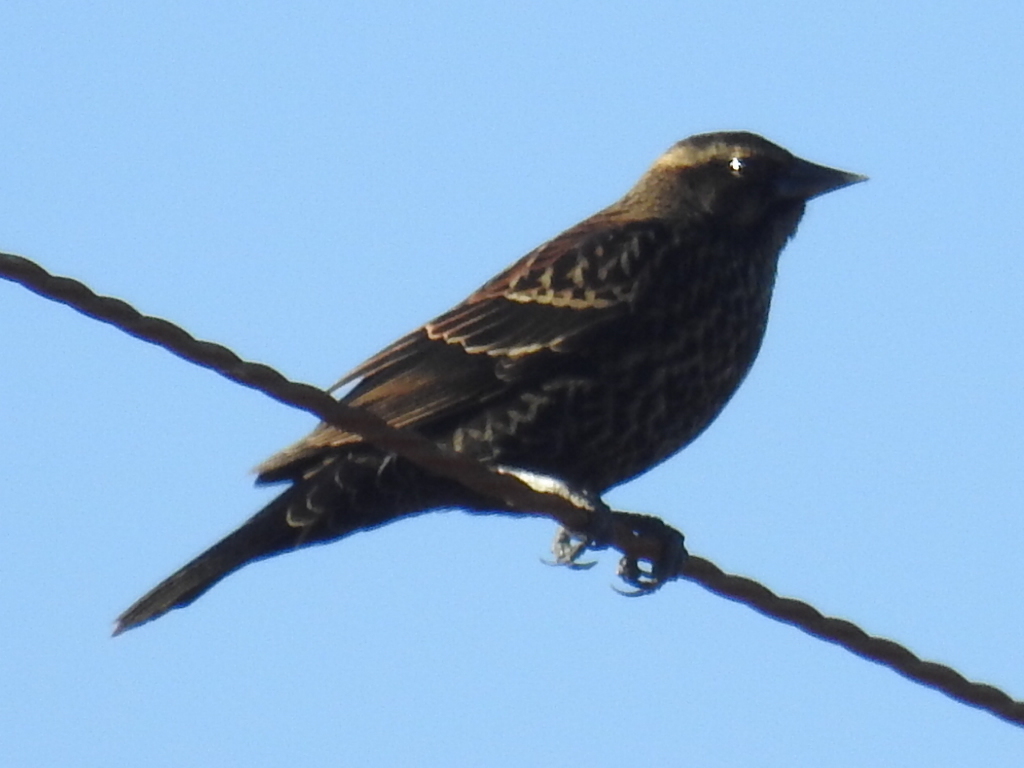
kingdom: Animalia
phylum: Chordata
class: Aves
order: Passeriformes
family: Icteridae
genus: Agelaius
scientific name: Agelaius phoeniceus
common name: Red-winged blackbird
